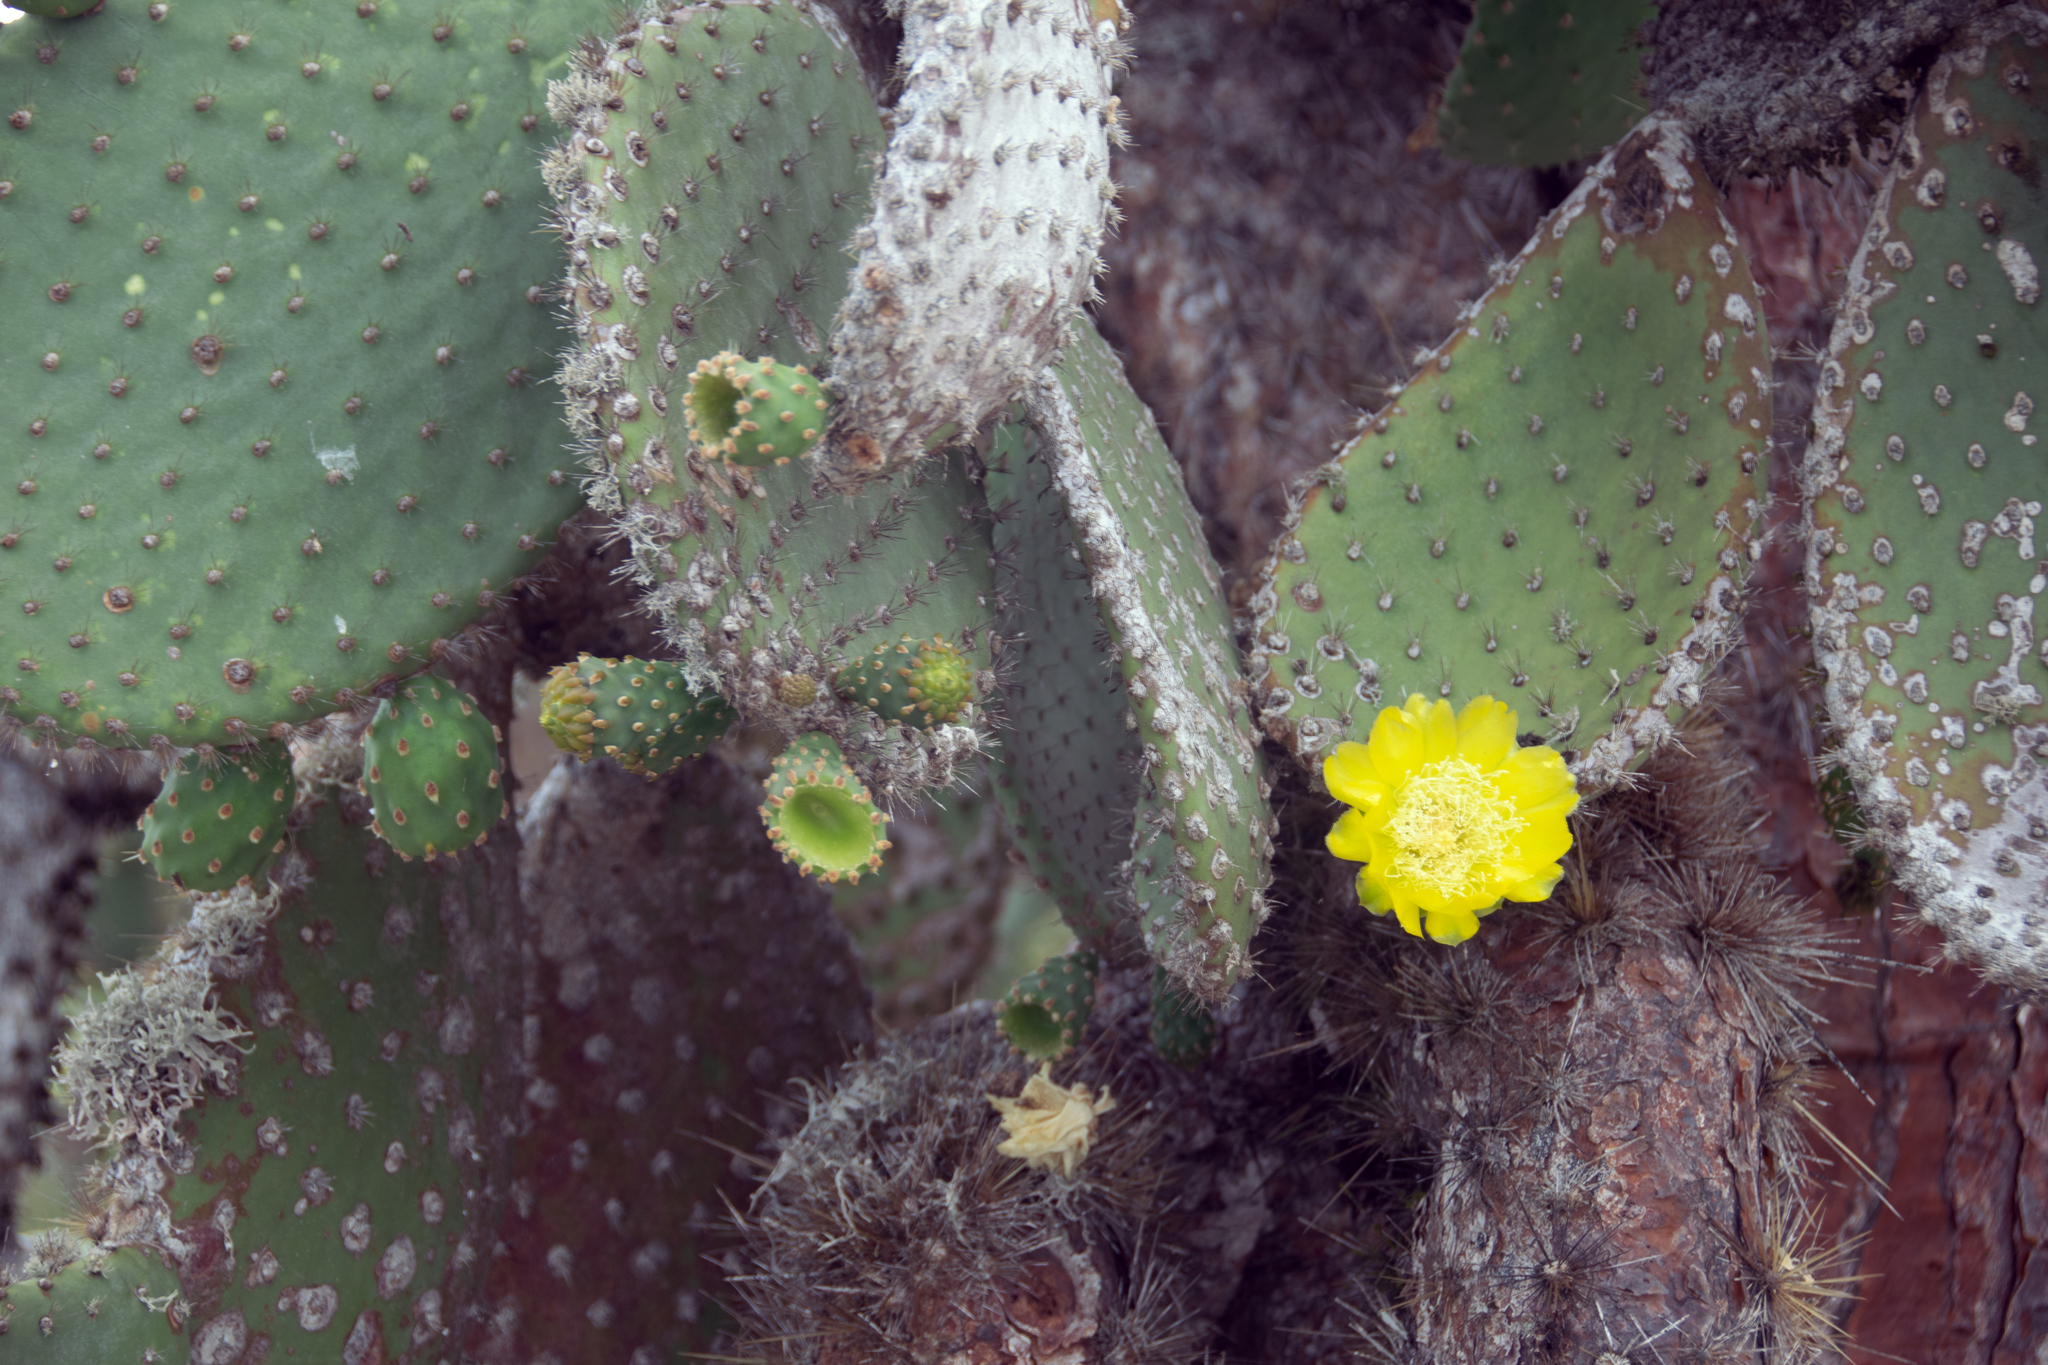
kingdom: Plantae
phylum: Tracheophyta
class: Magnoliopsida
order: Caryophyllales
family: Cactaceae
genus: Opuntia
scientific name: Opuntia galapageia
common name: Galápagos prickly pear
